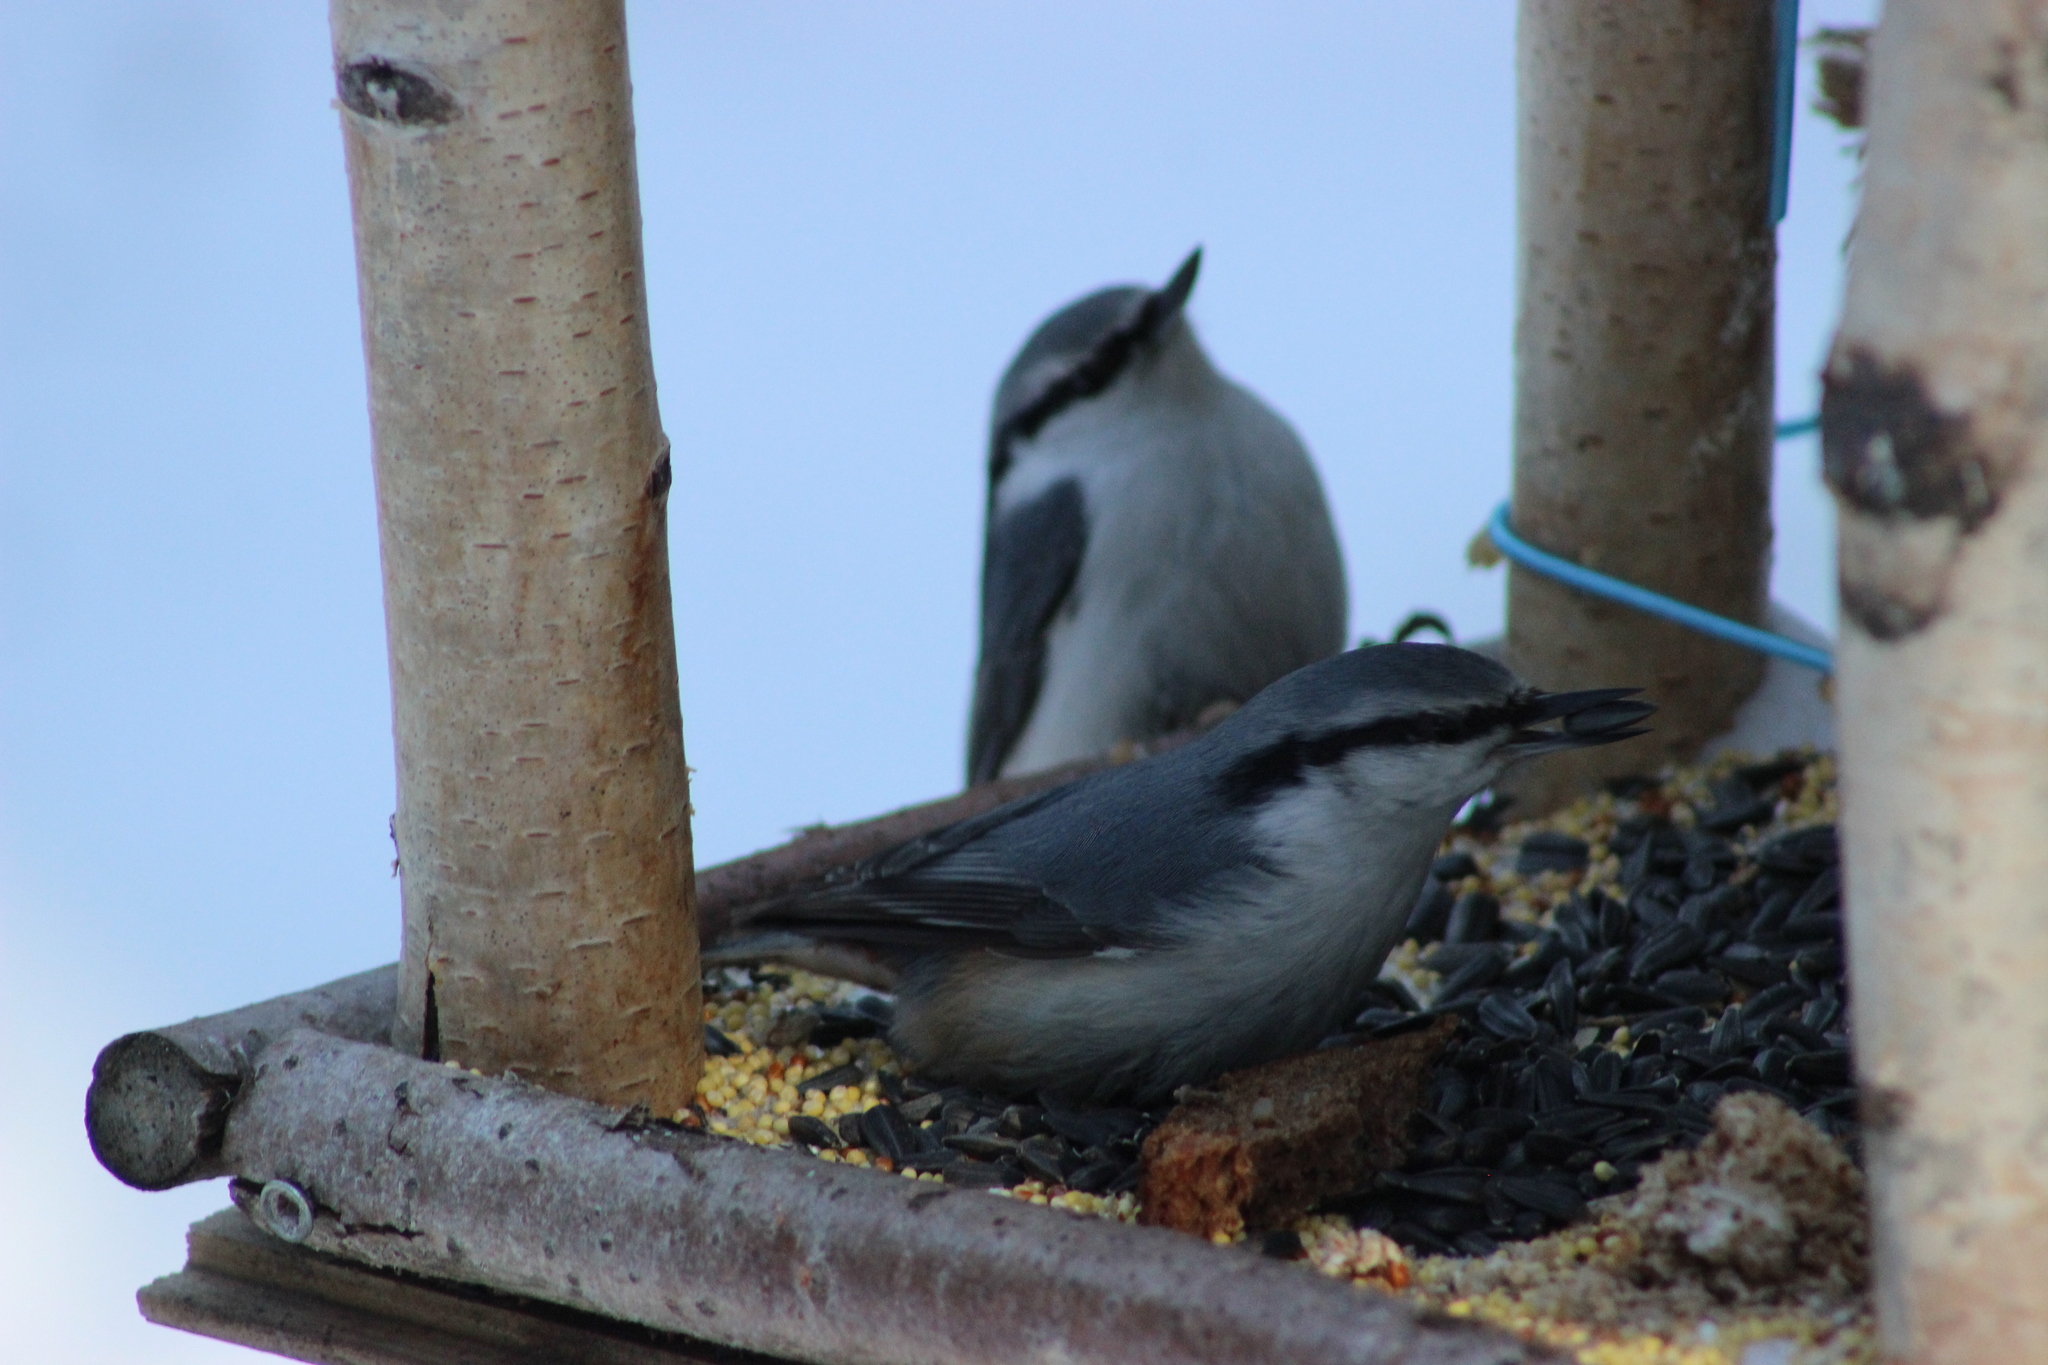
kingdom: Animalia
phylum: Chordata
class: Aves
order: Passeriformes
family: Sittidae
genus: Sitta
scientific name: Sitta europaea
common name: Eurasian nuthatch
